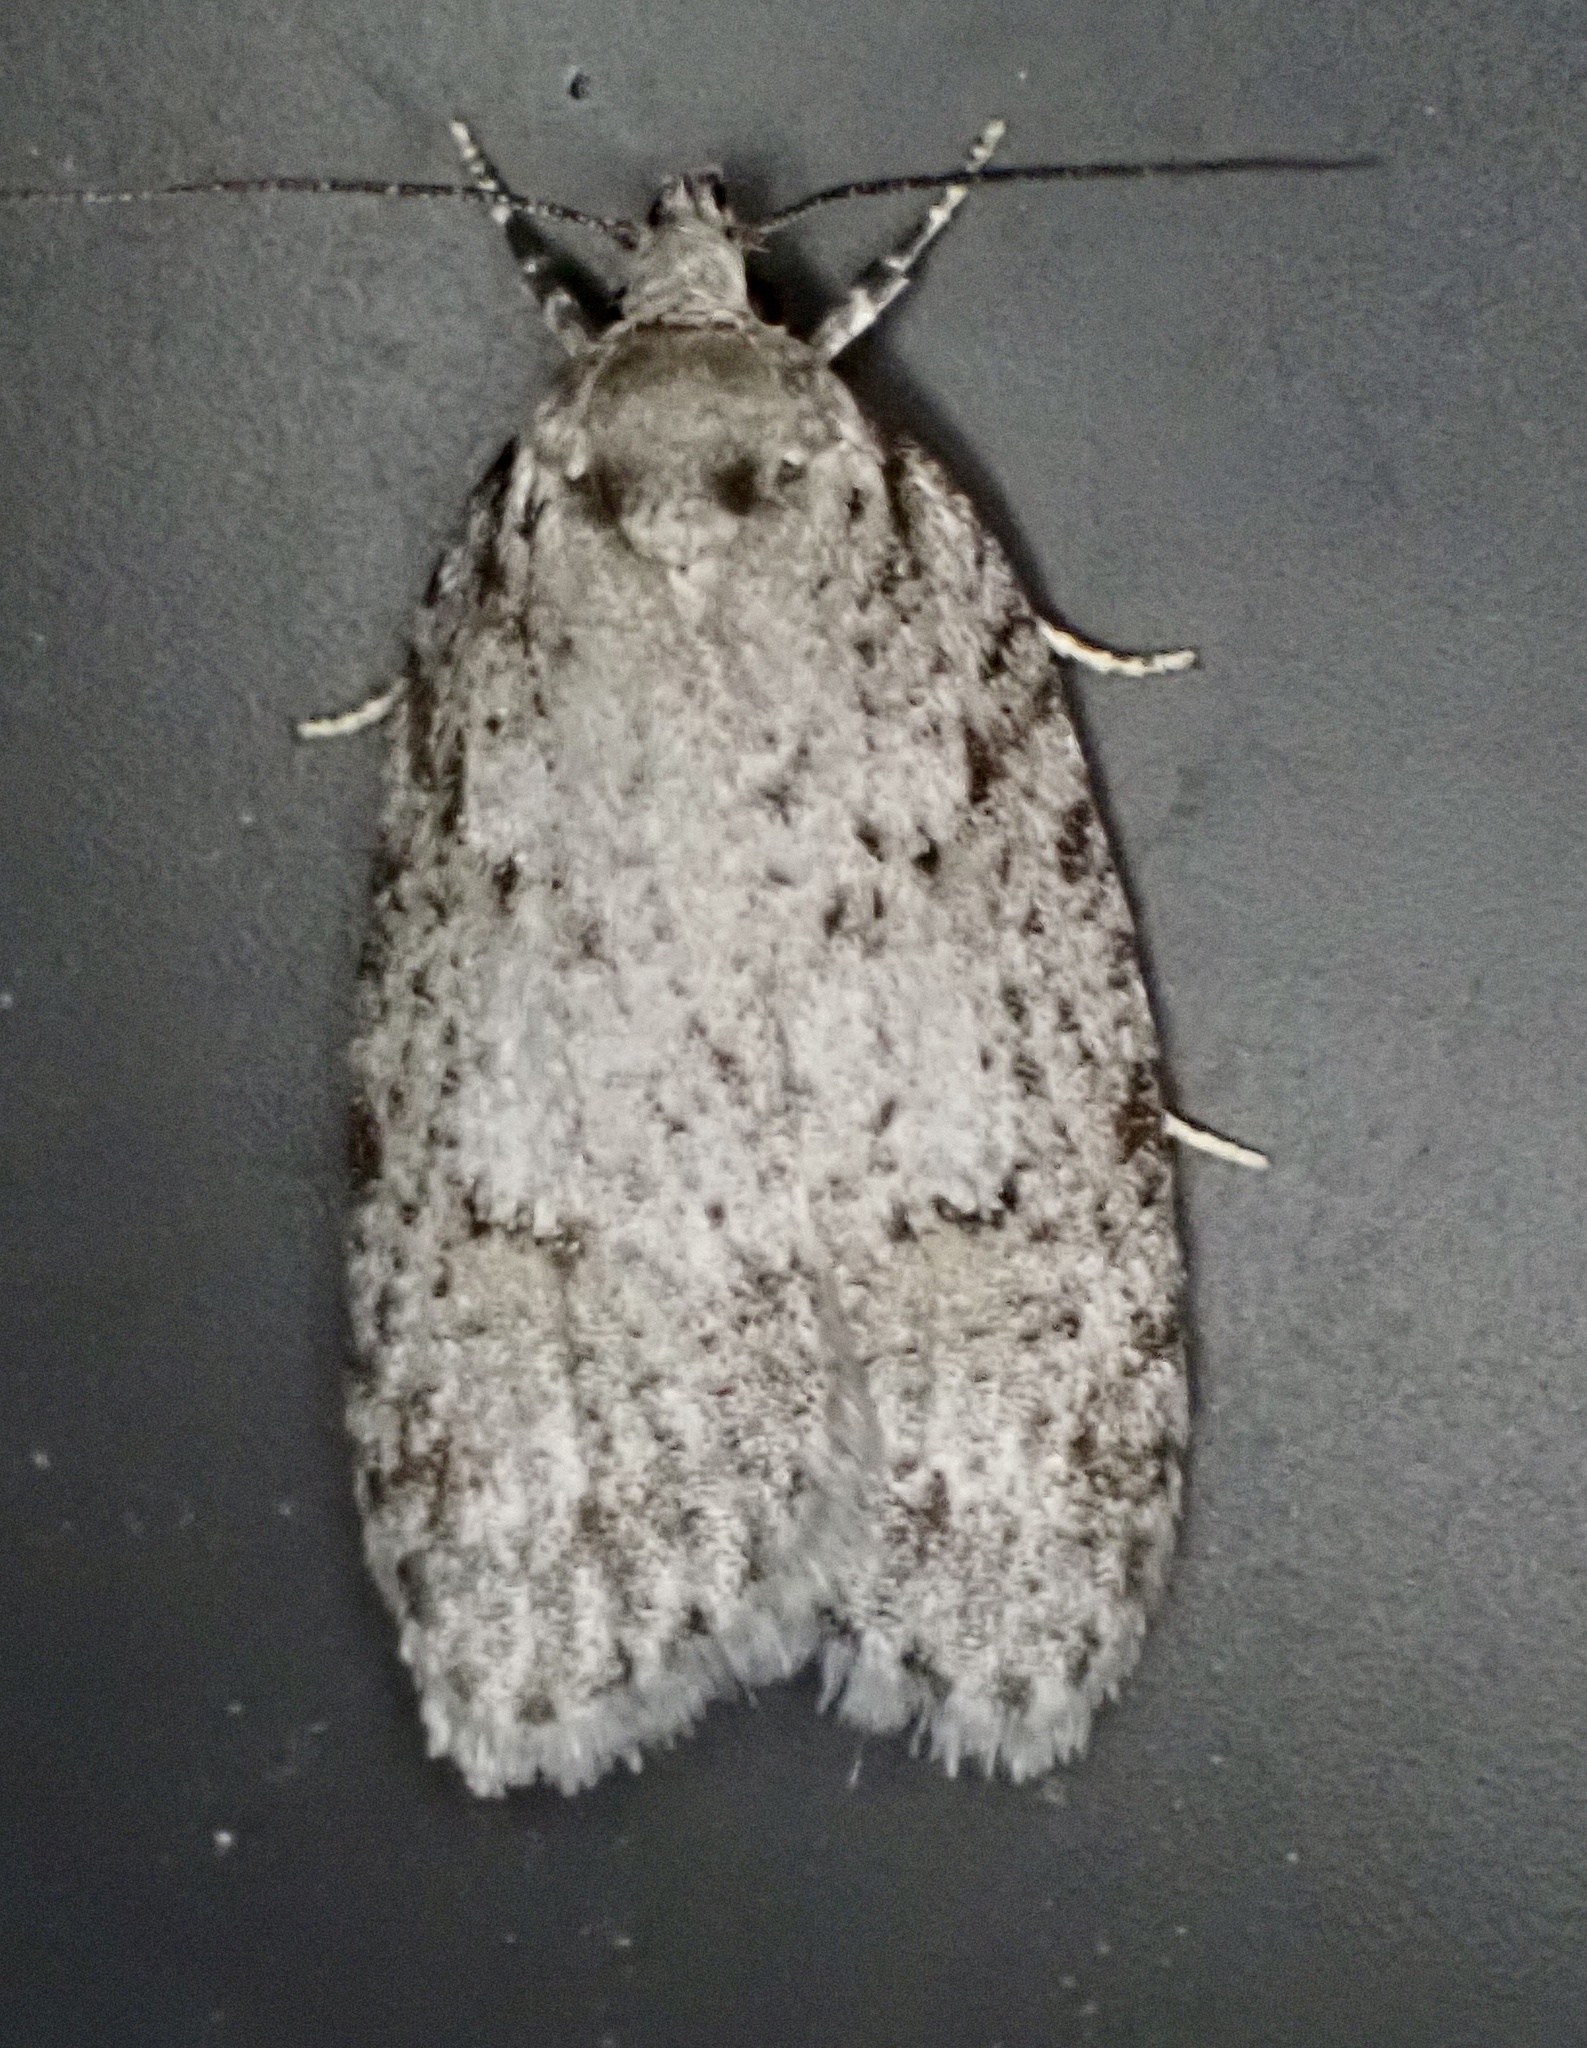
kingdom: Animalia
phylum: Arthropoda
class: Insecta
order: Lepidoptera
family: Depressariidae
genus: Bibarrambla
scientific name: Bibarrambla allenella
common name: Bog bibarrambla moth
